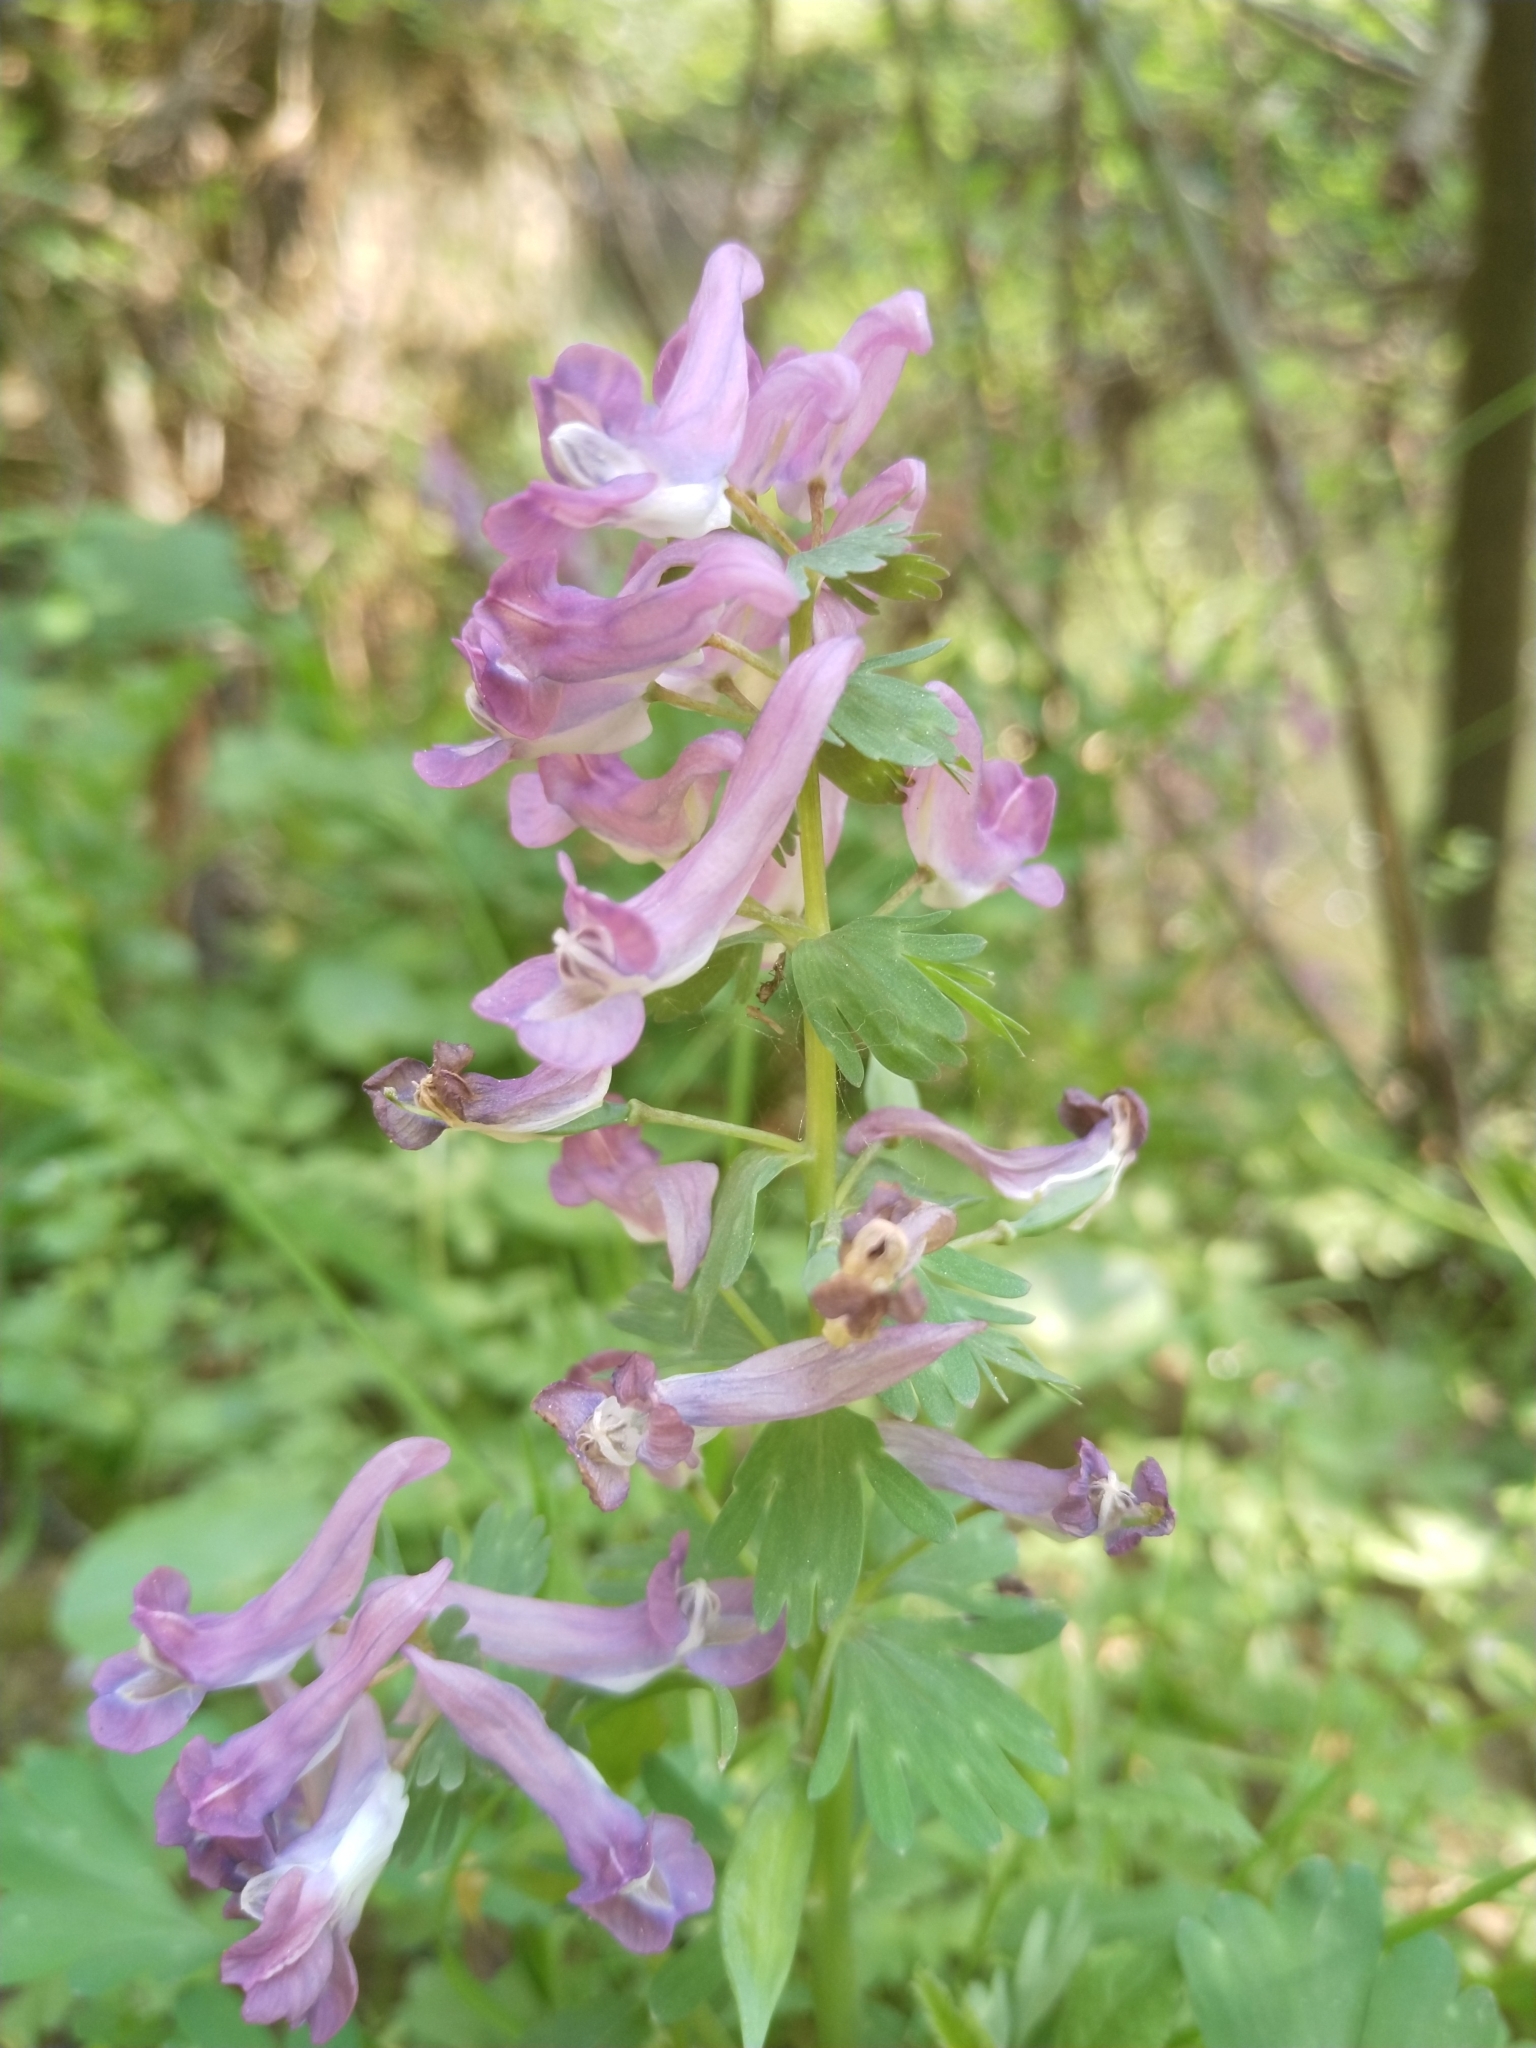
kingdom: Plantae
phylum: Tracheophyta
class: Magnoliopsida
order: Ranunculales
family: Papaveraceae
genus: Corydalis
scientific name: Corydalis solida
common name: Bird-in-a-bush
